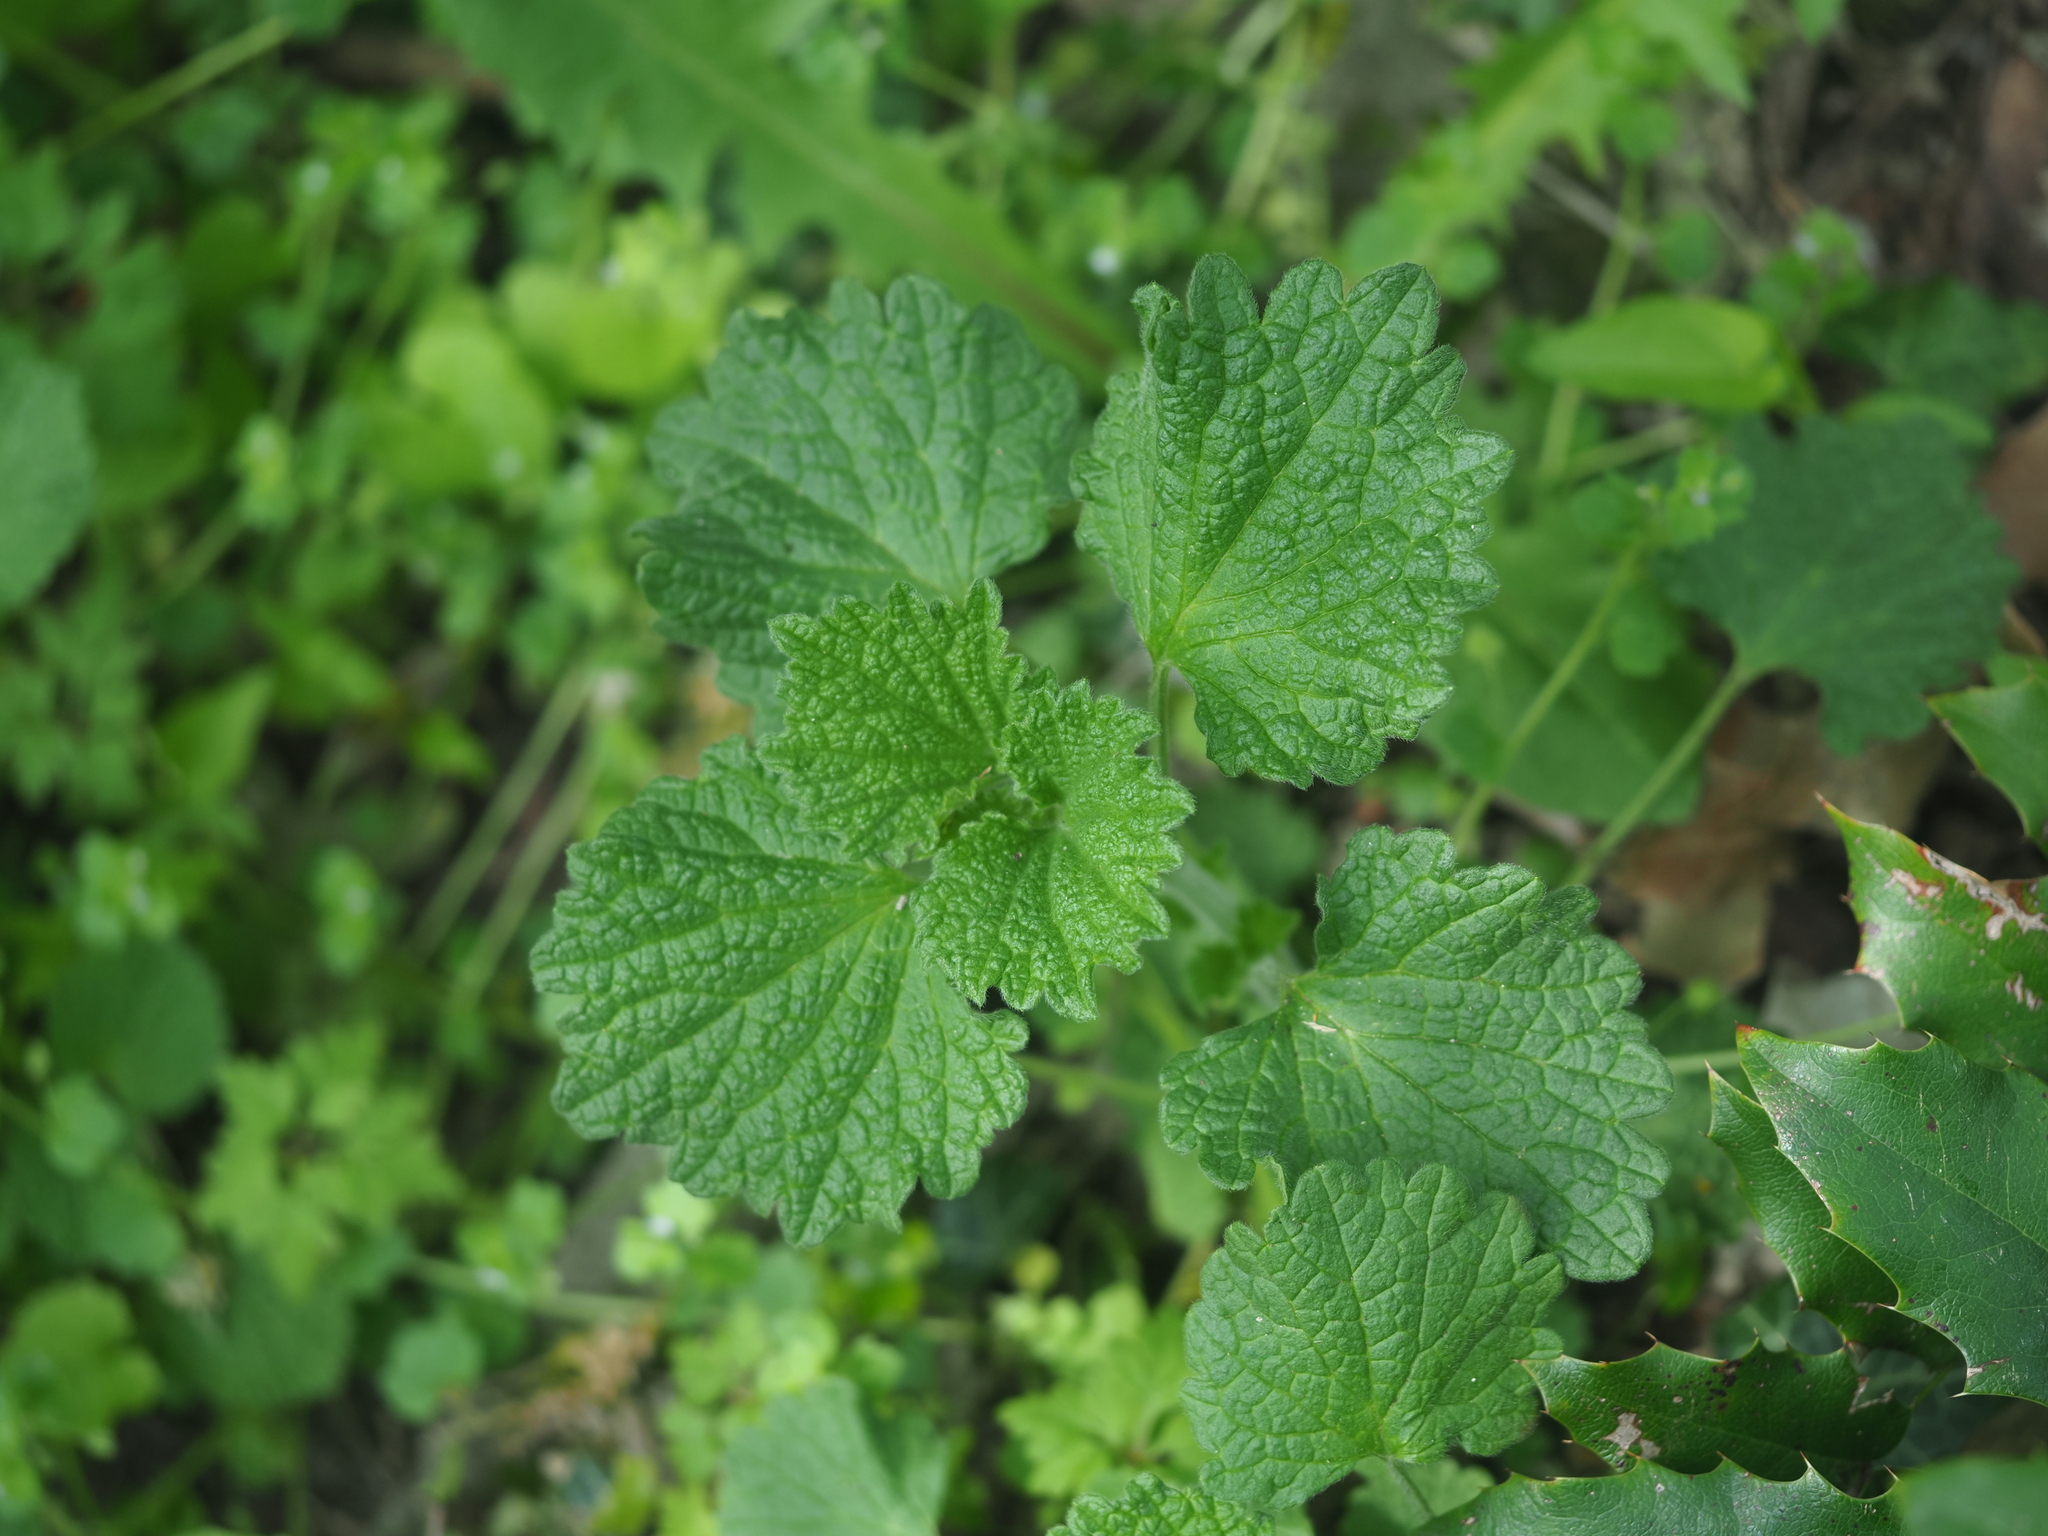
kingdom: Plantae
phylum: Tracheophyta
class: Magnoliopsida
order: Lamiales
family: Lamiaceae
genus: Ballota
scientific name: Ballota nigra
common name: Black horehound
